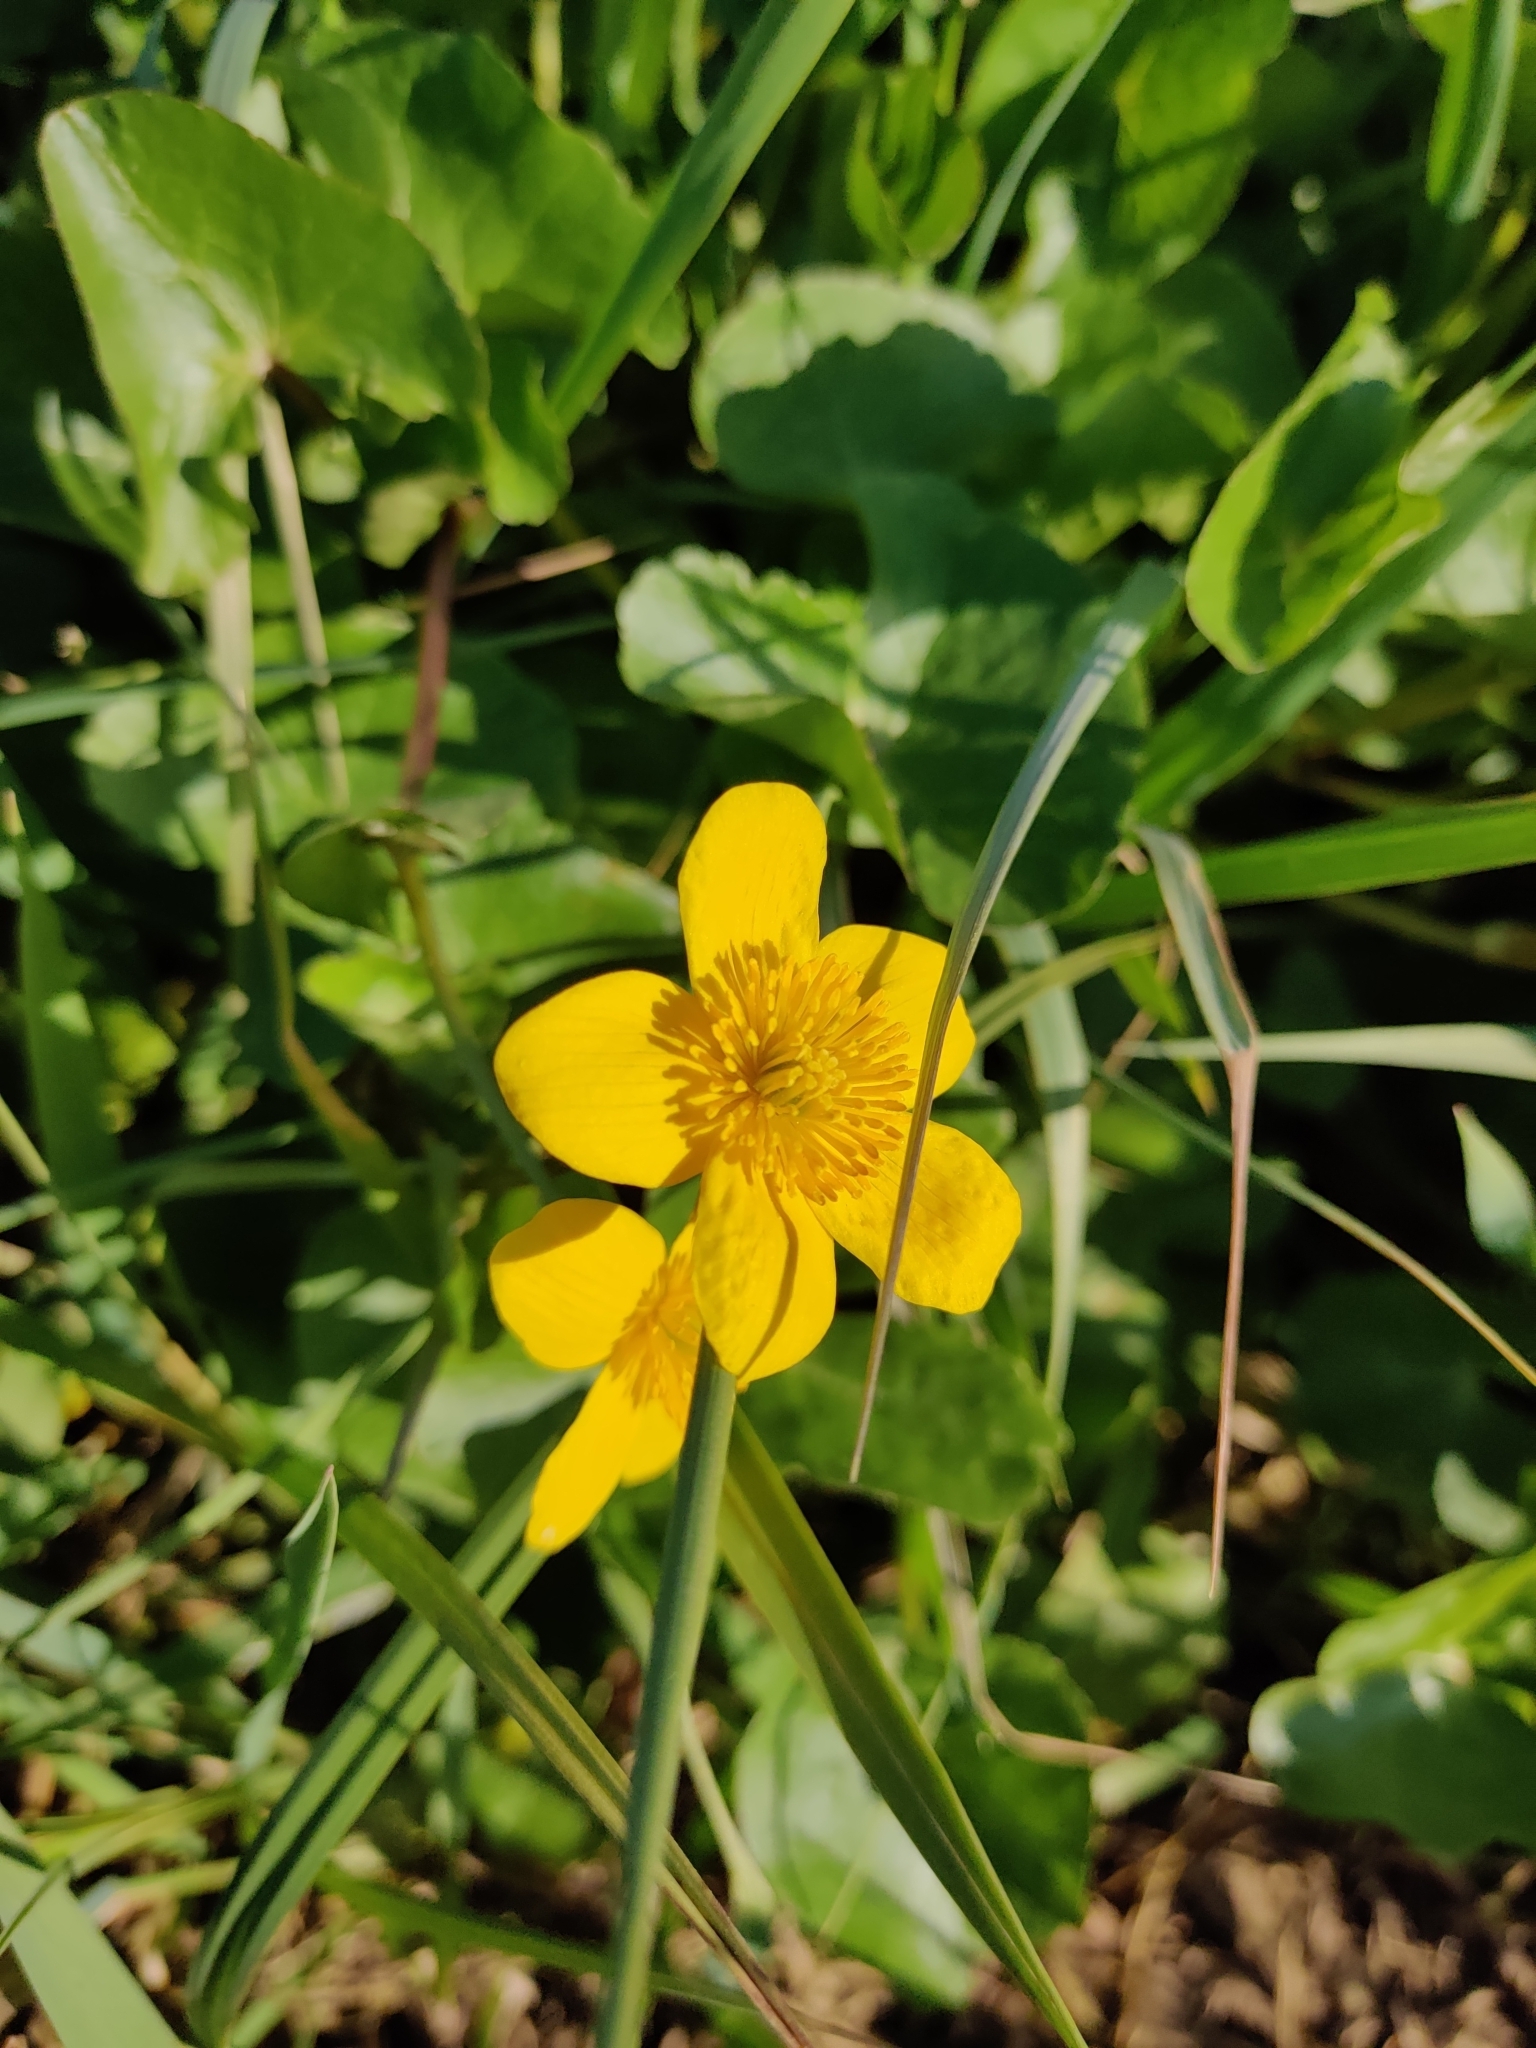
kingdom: Plantae
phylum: Tracheophyta
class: Magnoliopsida
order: Ranunculales
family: Ranunculaceae
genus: Caltha
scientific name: Caltha palustris
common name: Marsh marigold
